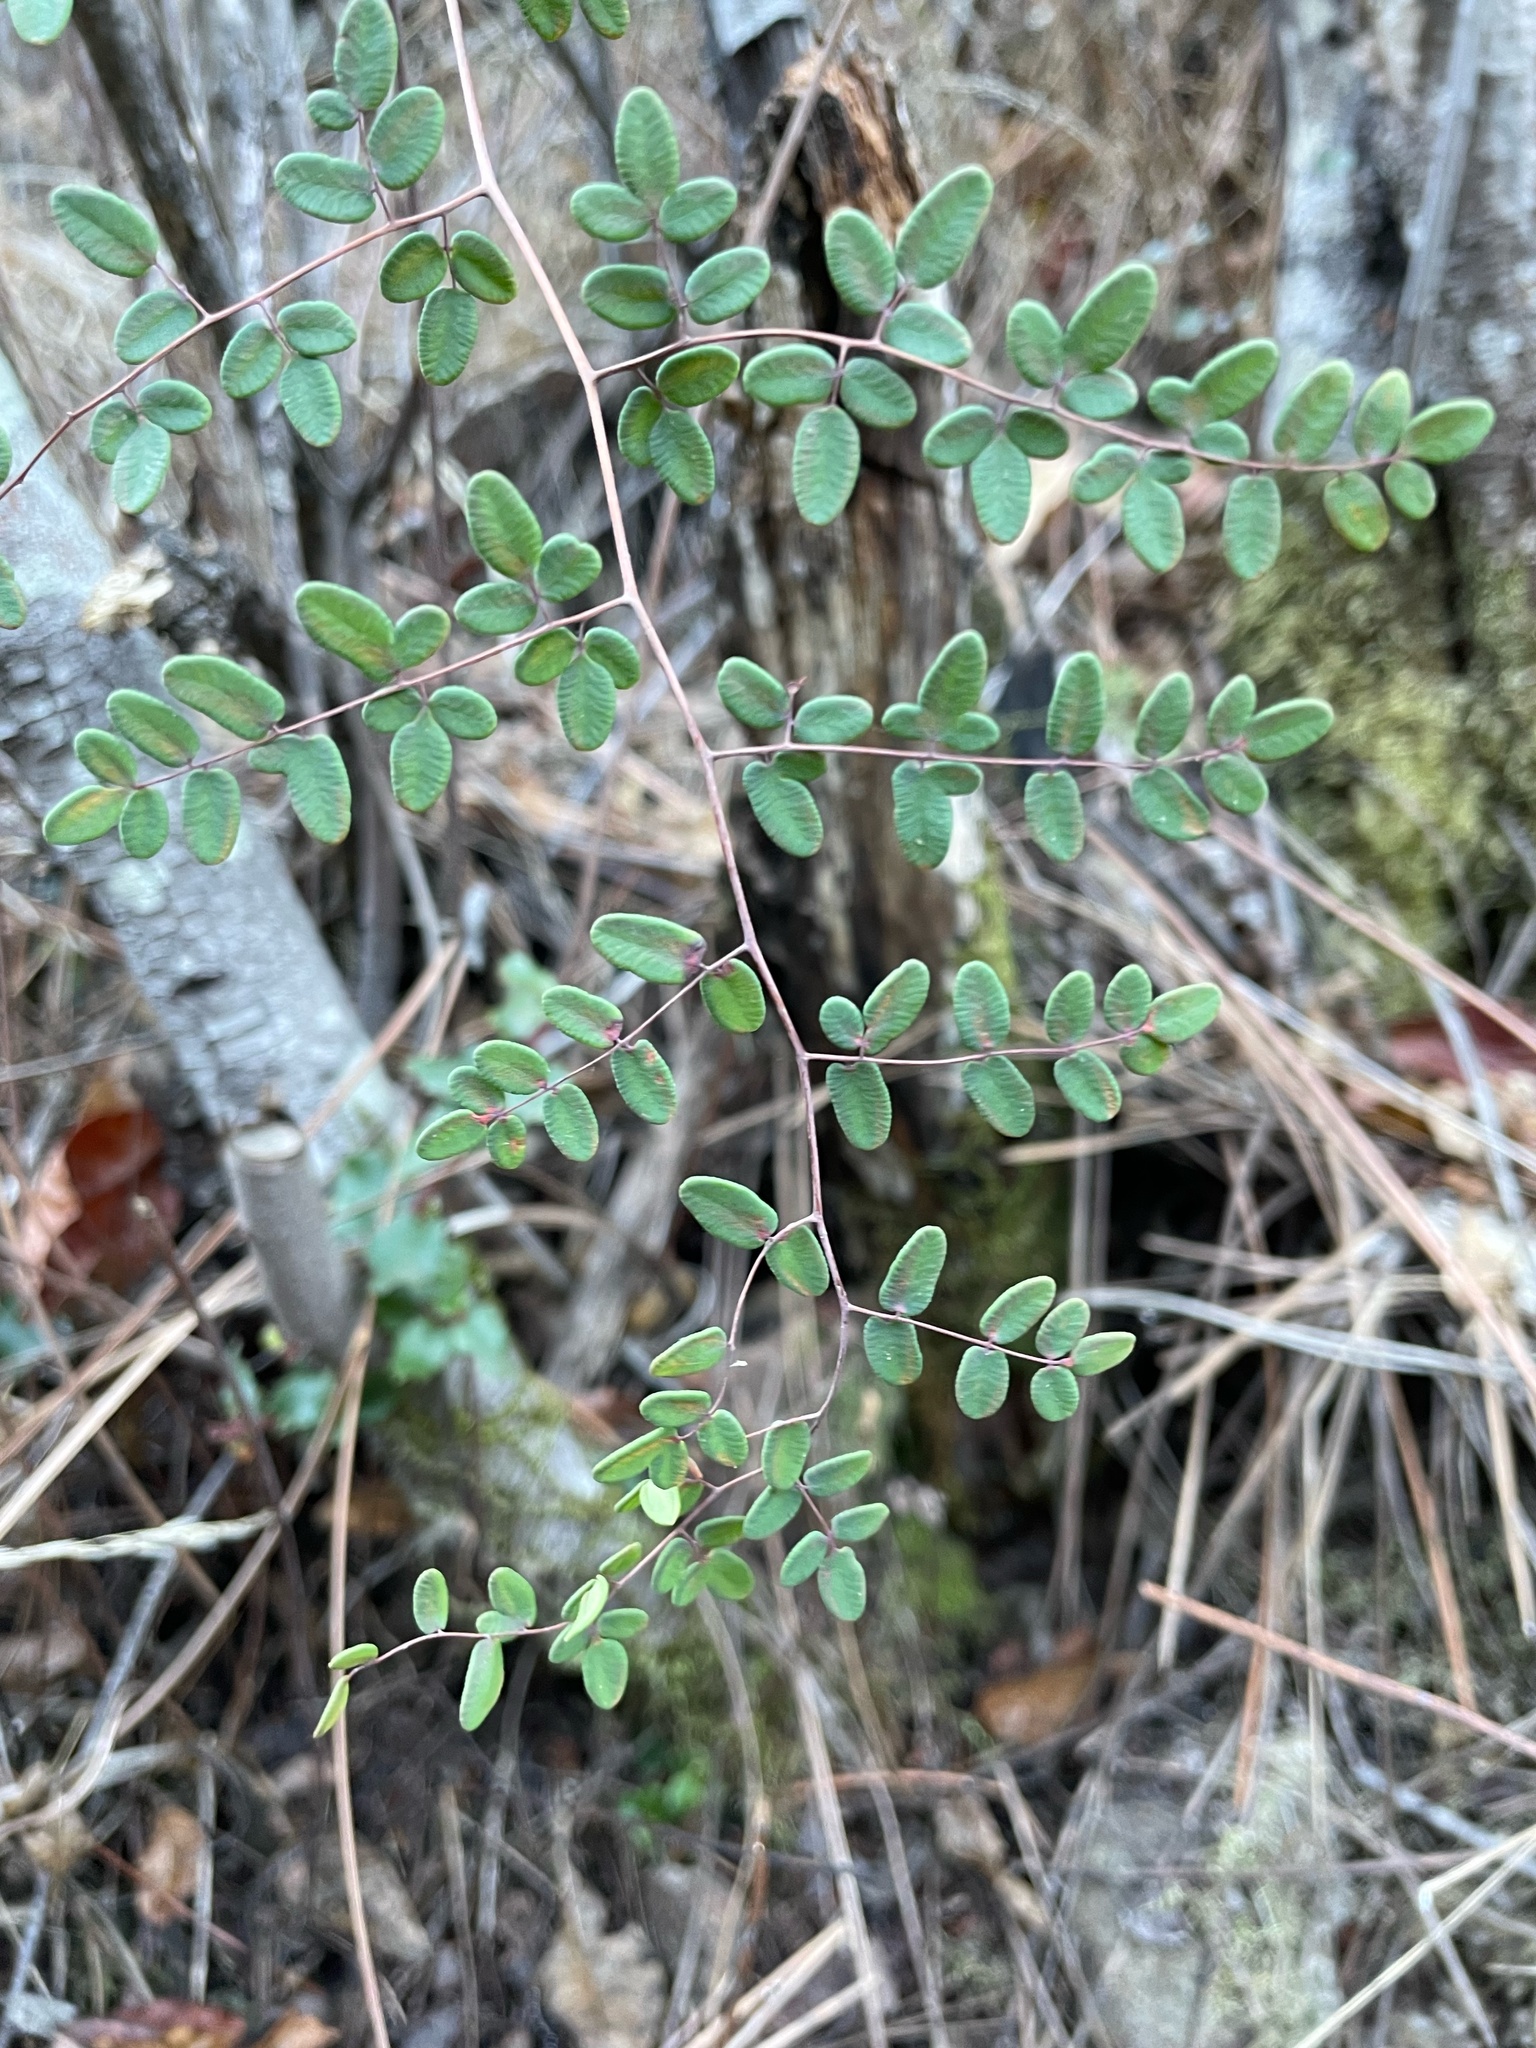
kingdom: Plantae
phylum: Tracheophyta
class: Polypodiopsida
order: Polypodiales
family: Pteridaceae
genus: Pellaea
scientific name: Pellaea andromedifolia
